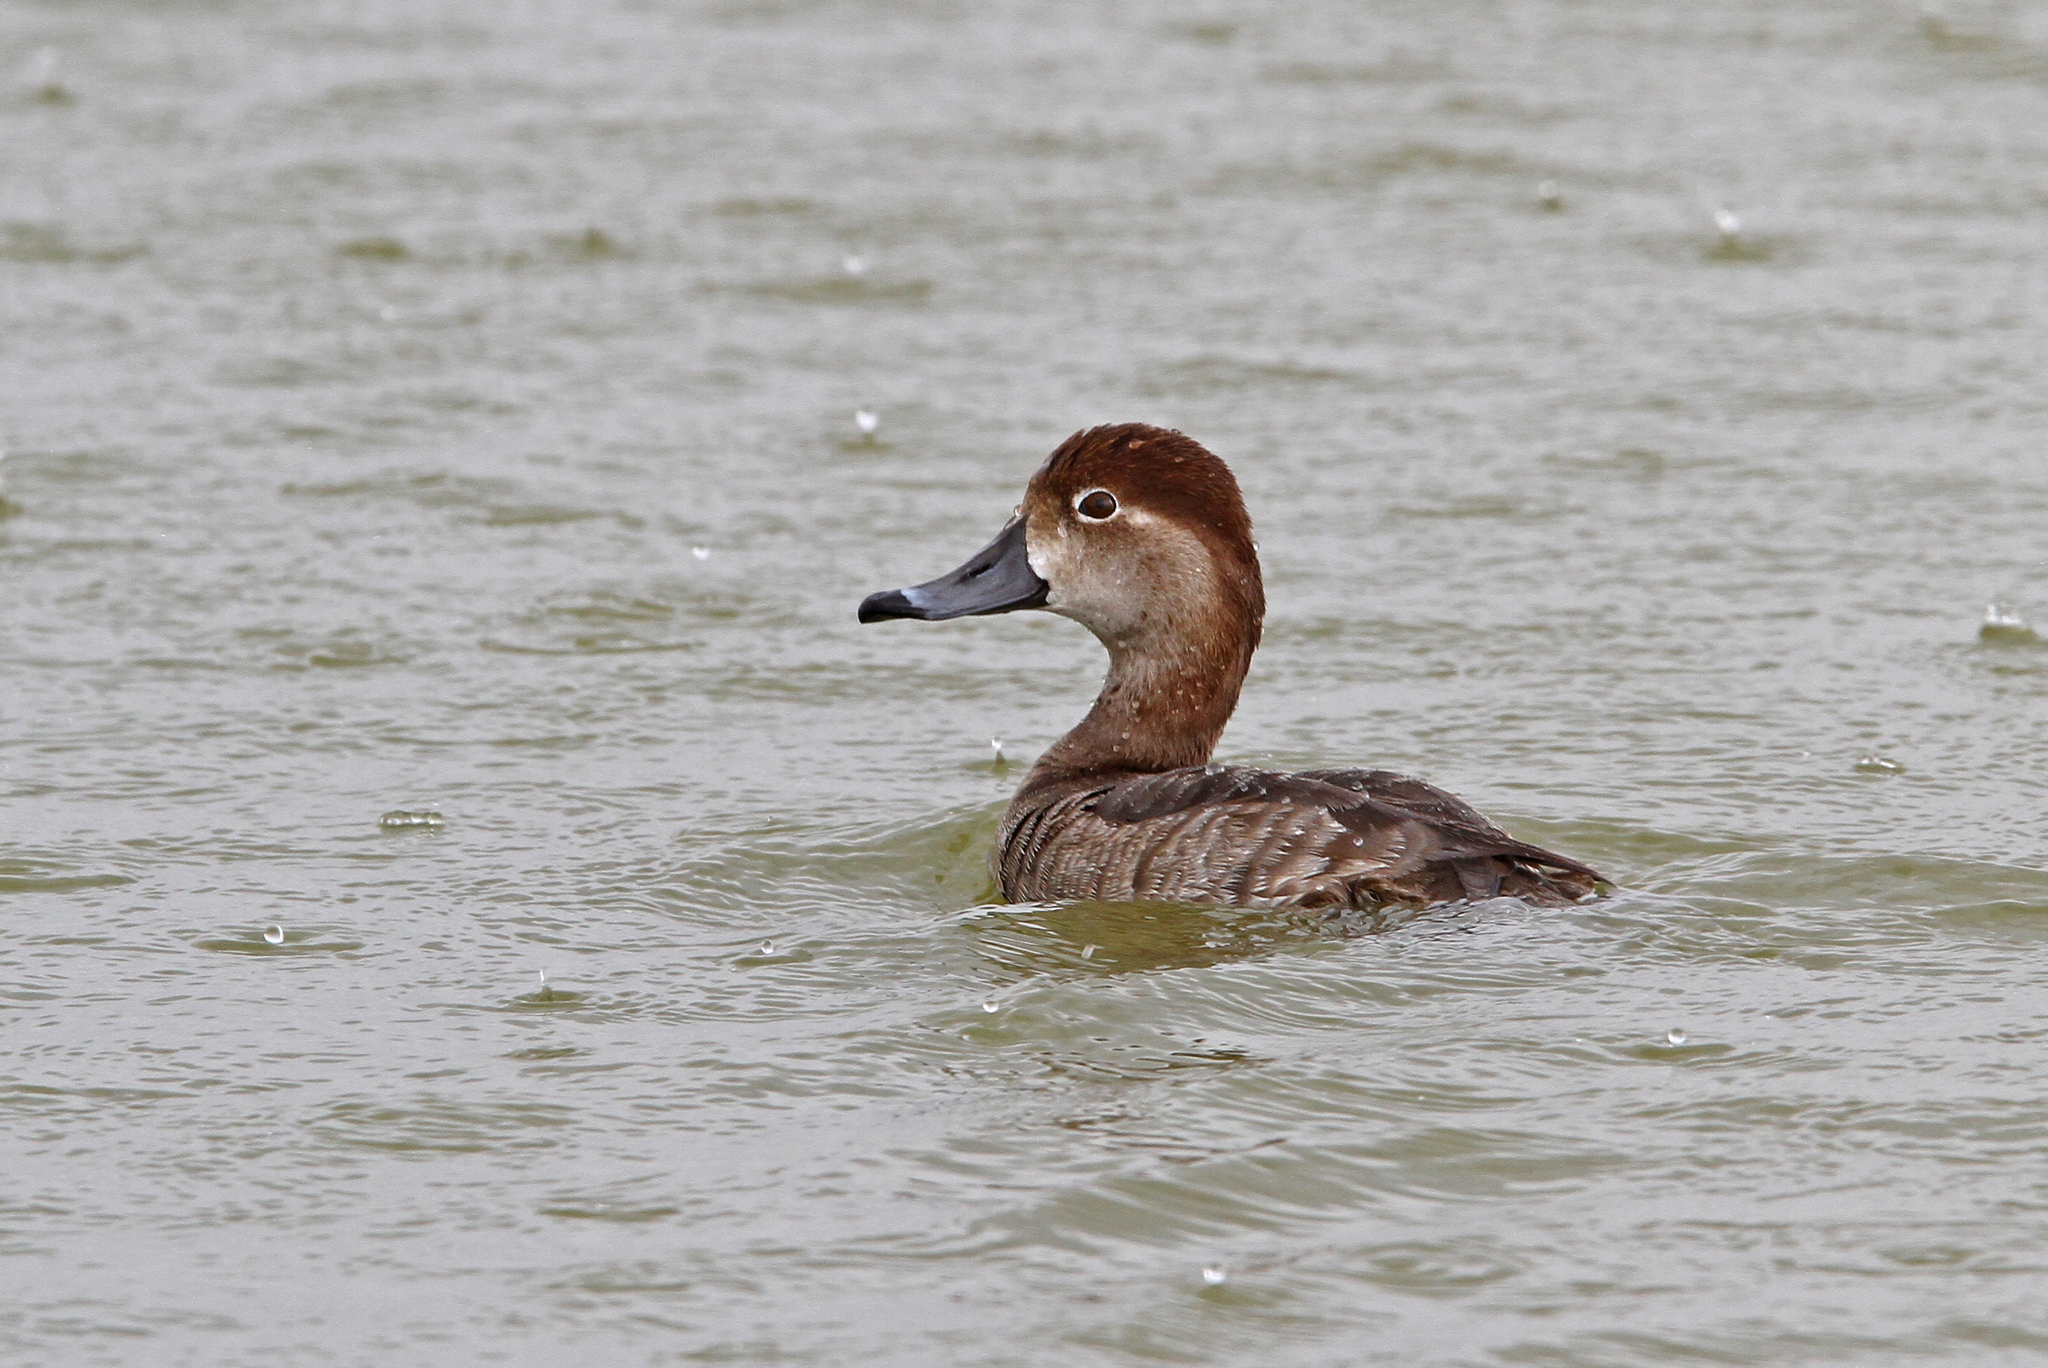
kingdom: Animalia
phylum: Chordata
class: Aves
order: Anseriformes
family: Anatidae
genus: Aythya
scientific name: Aythya americana
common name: Redhead
